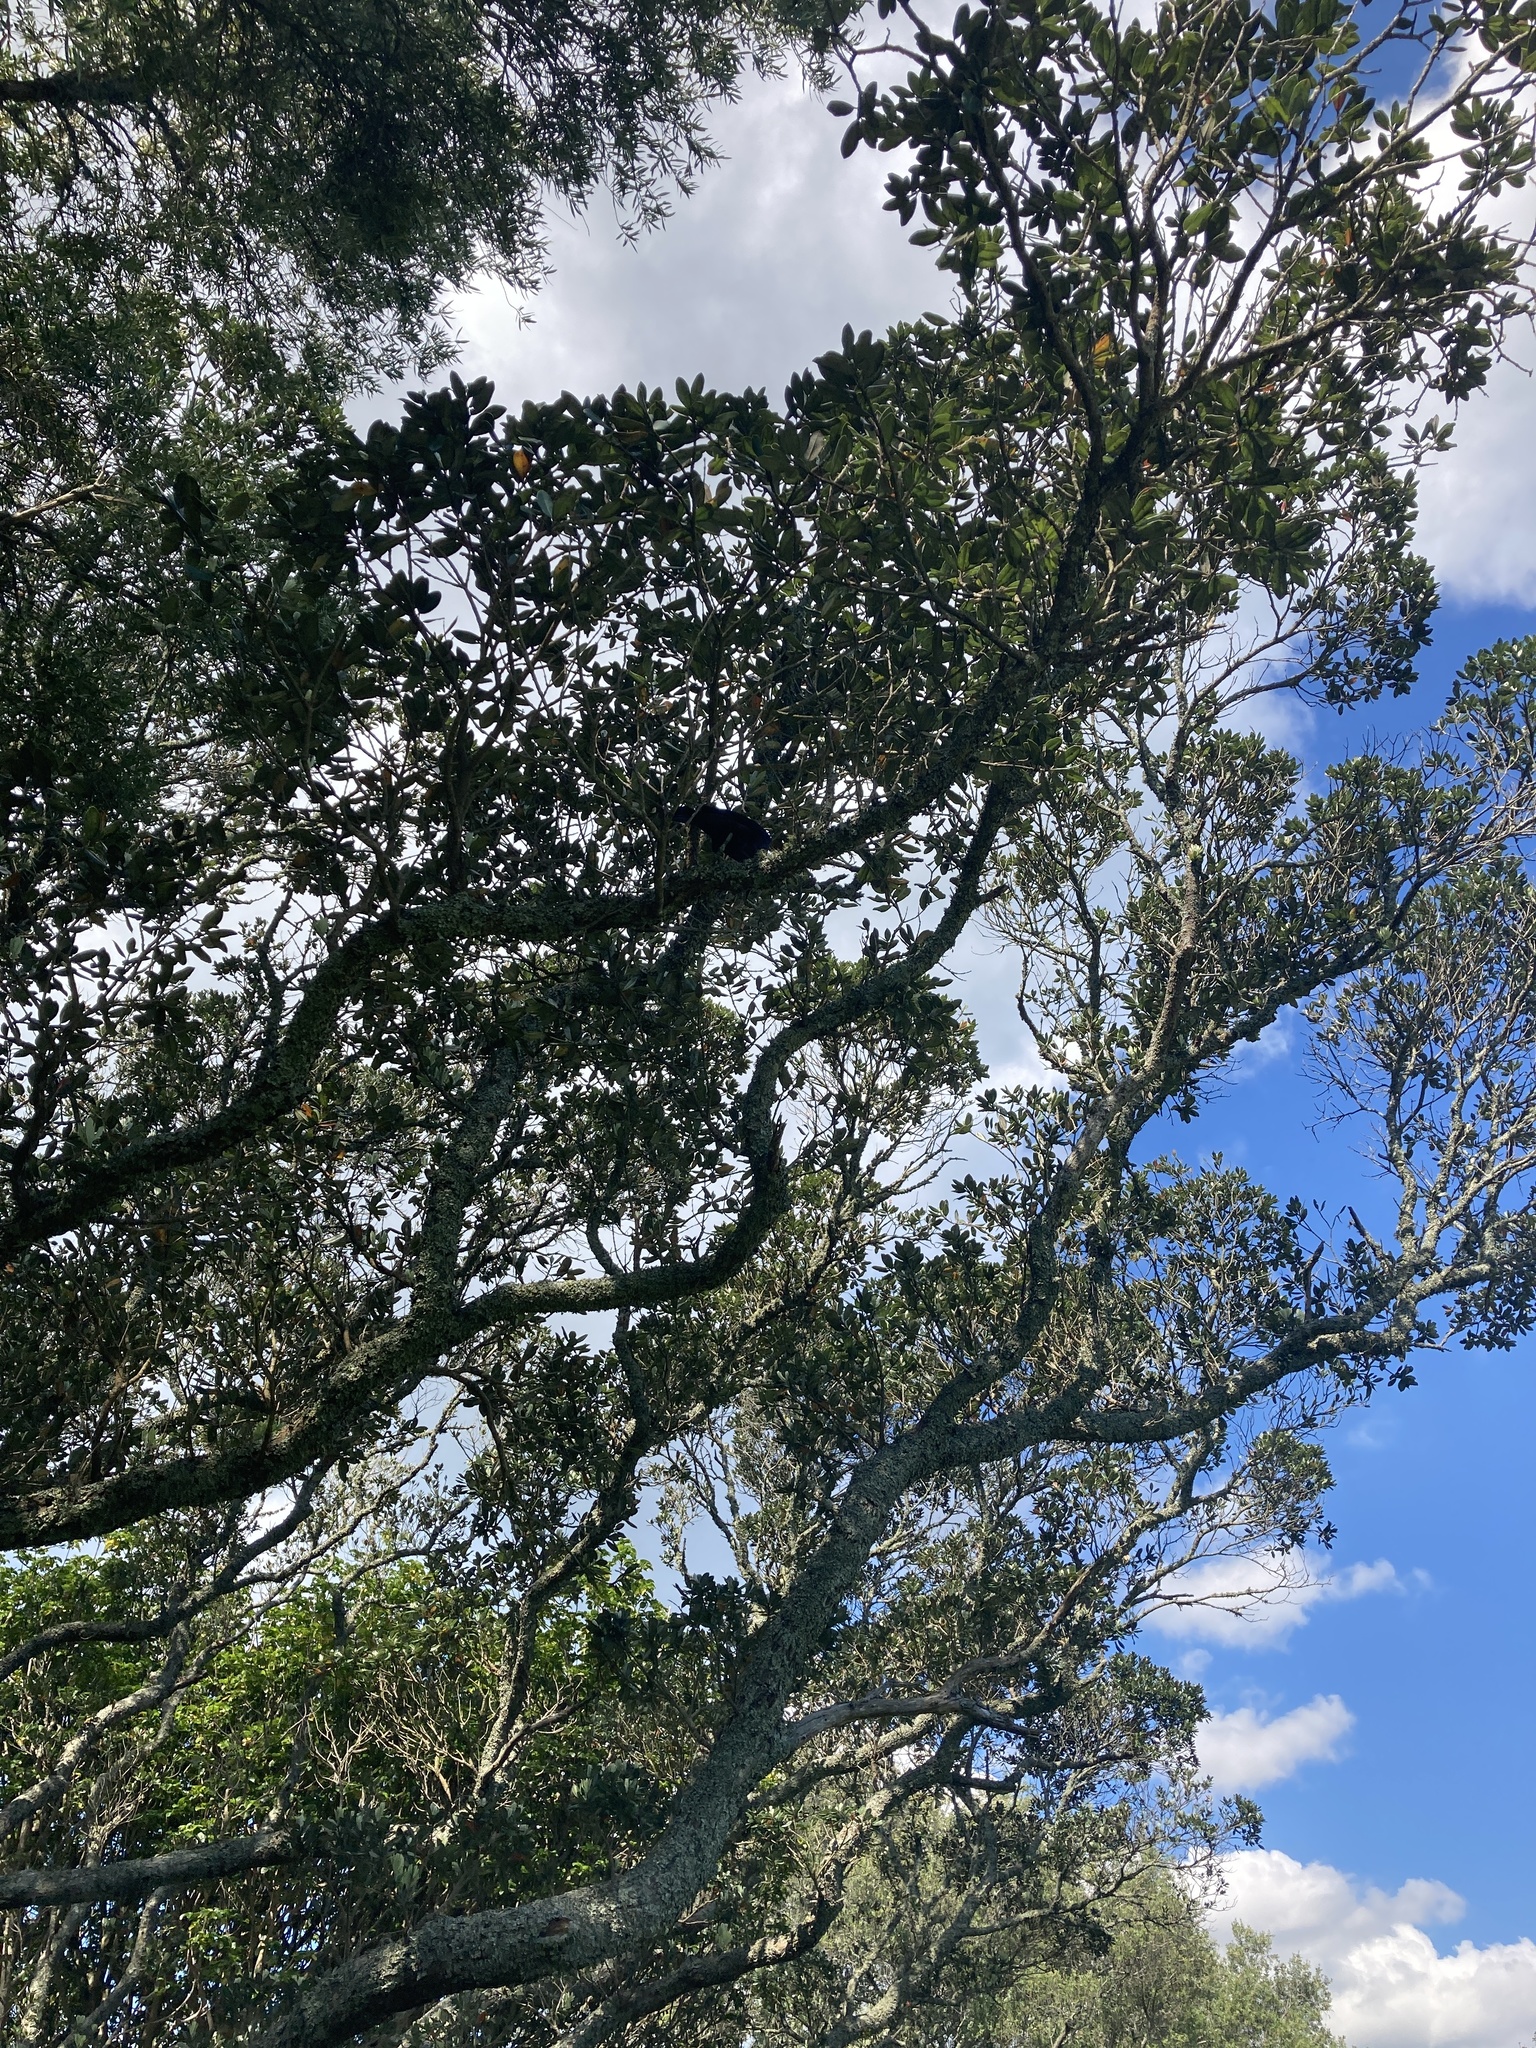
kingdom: Animalia
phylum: Chordata
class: Aves
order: Passeriformes
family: Meliphagidae
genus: Prosthemadera
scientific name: Prosthemadera novaeseelandiae
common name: Tui
